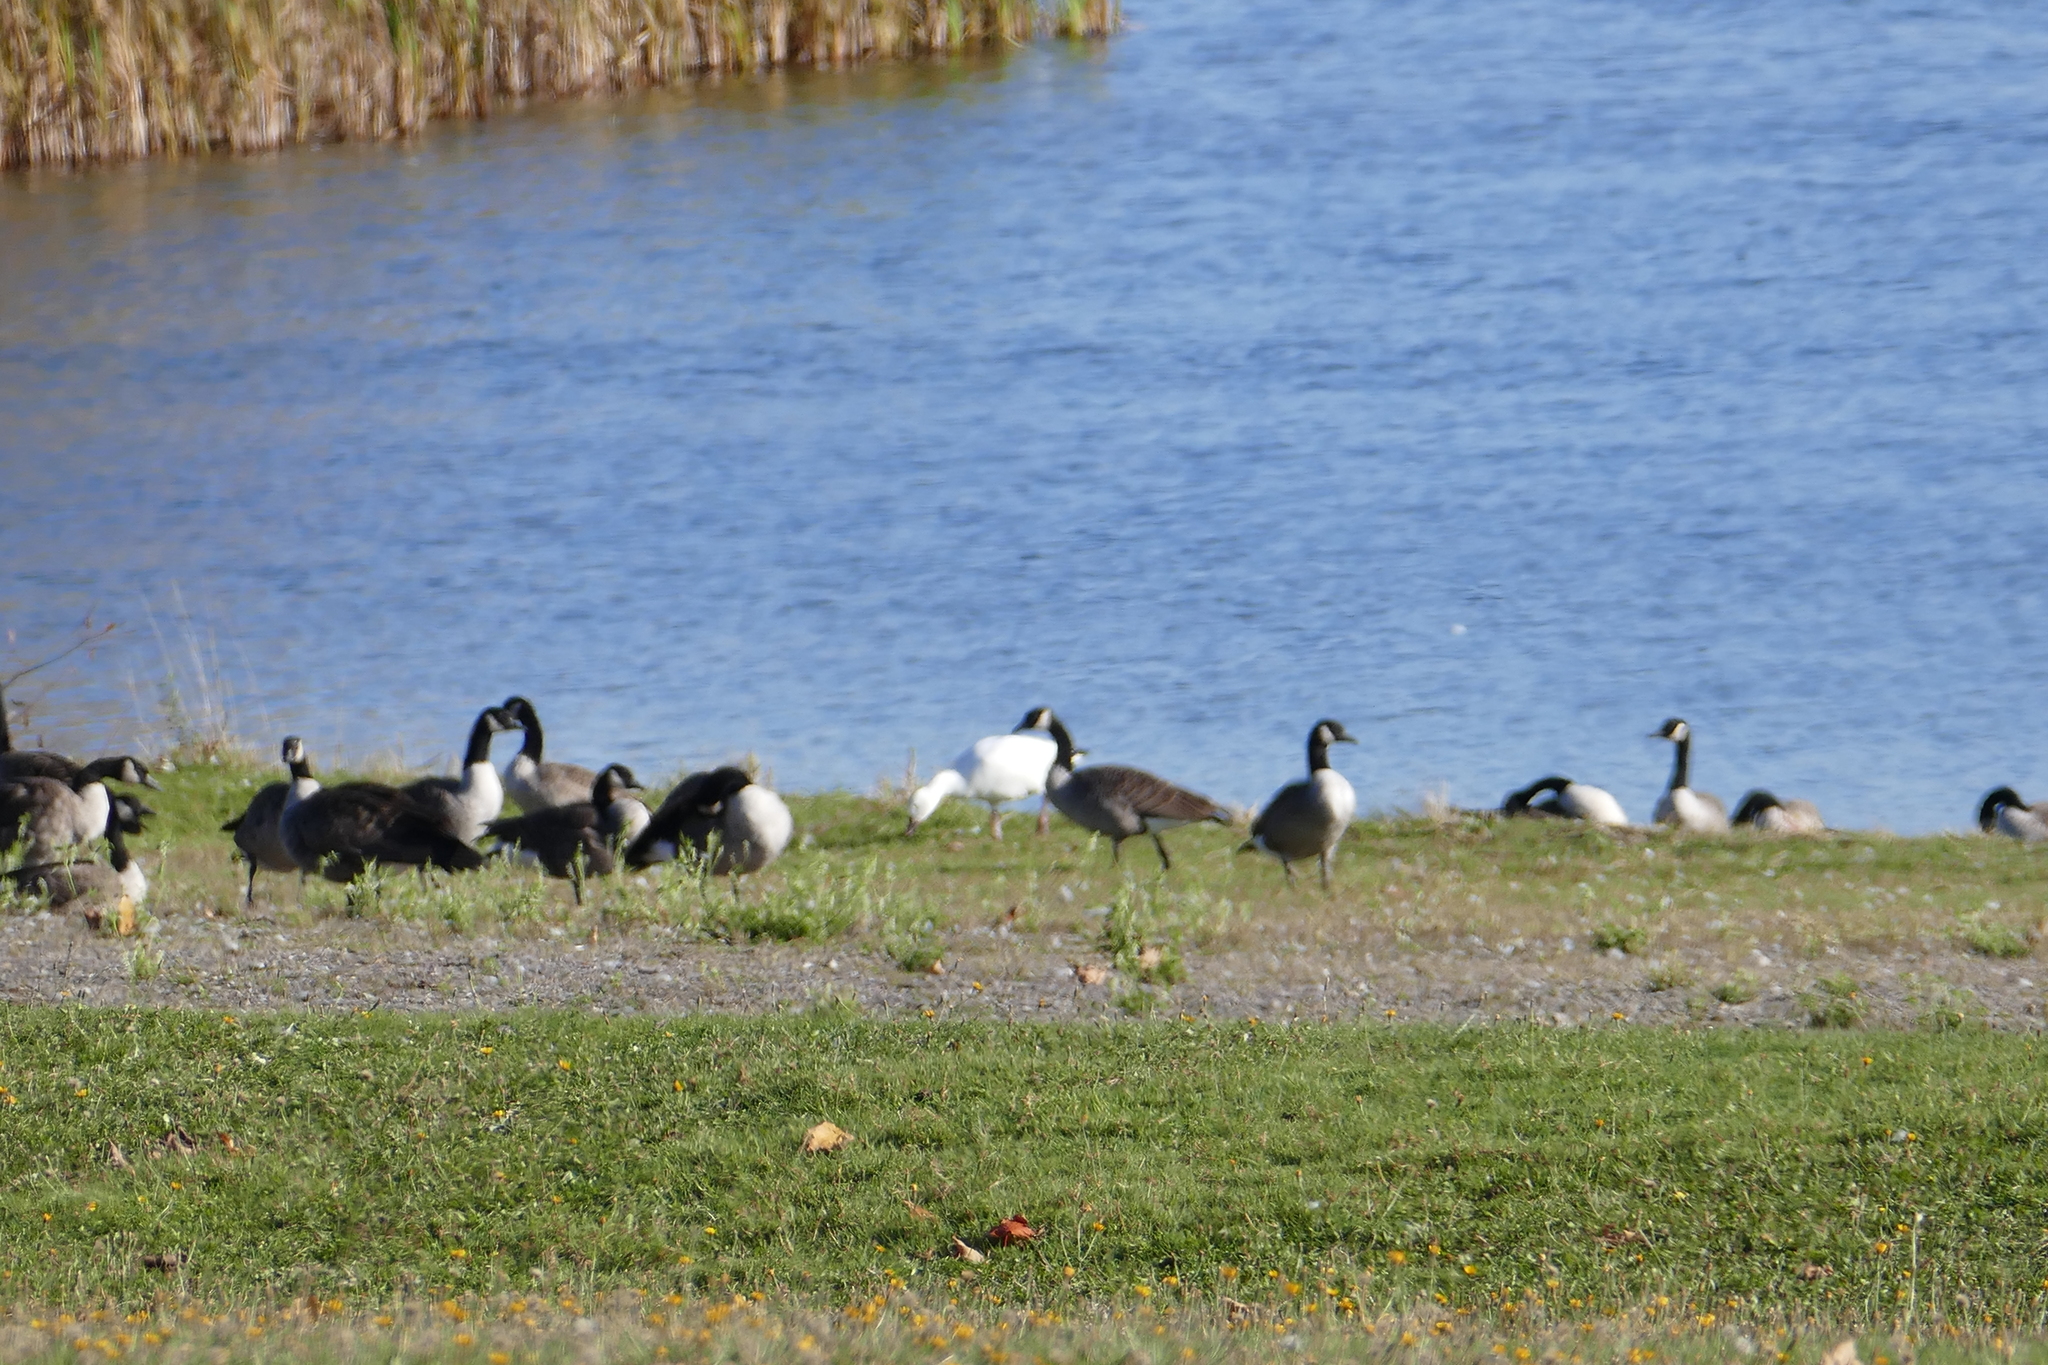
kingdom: Animalia
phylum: Chordata
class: Aves
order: Anseriformes
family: Anatidae
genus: Anser
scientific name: Anser caerulescens
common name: Snow goose
